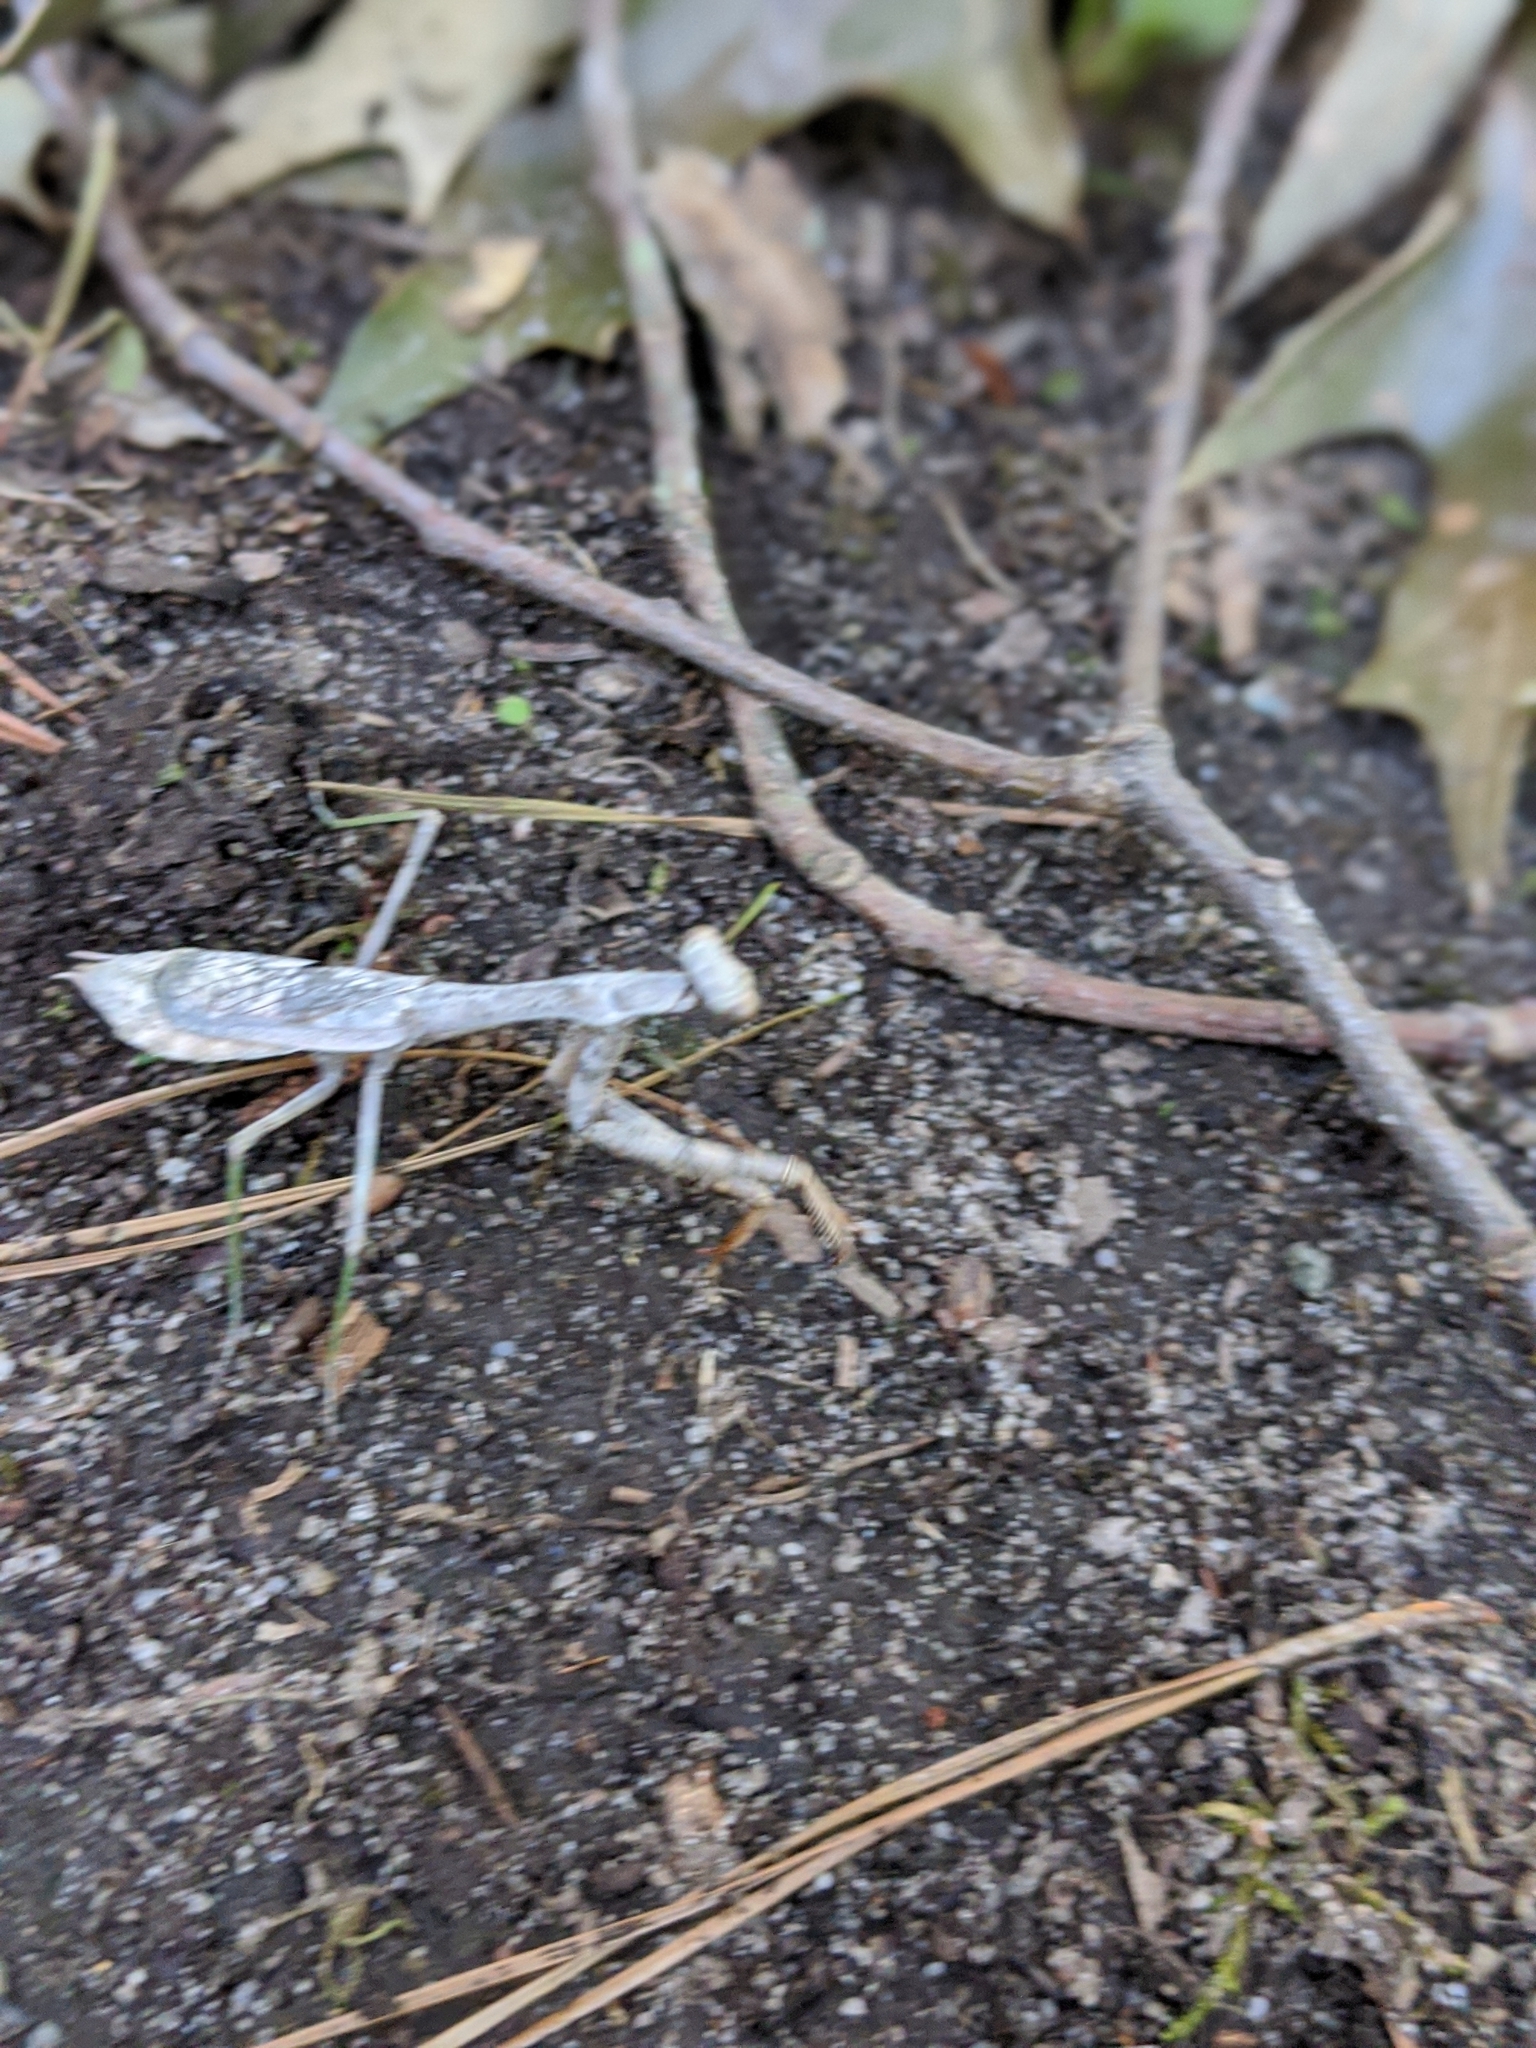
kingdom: Animalia
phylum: Arthropoda
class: Insecta
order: Mantodea
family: Mantidae
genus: Stagmomantis
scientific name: Stagmomantis carolina
